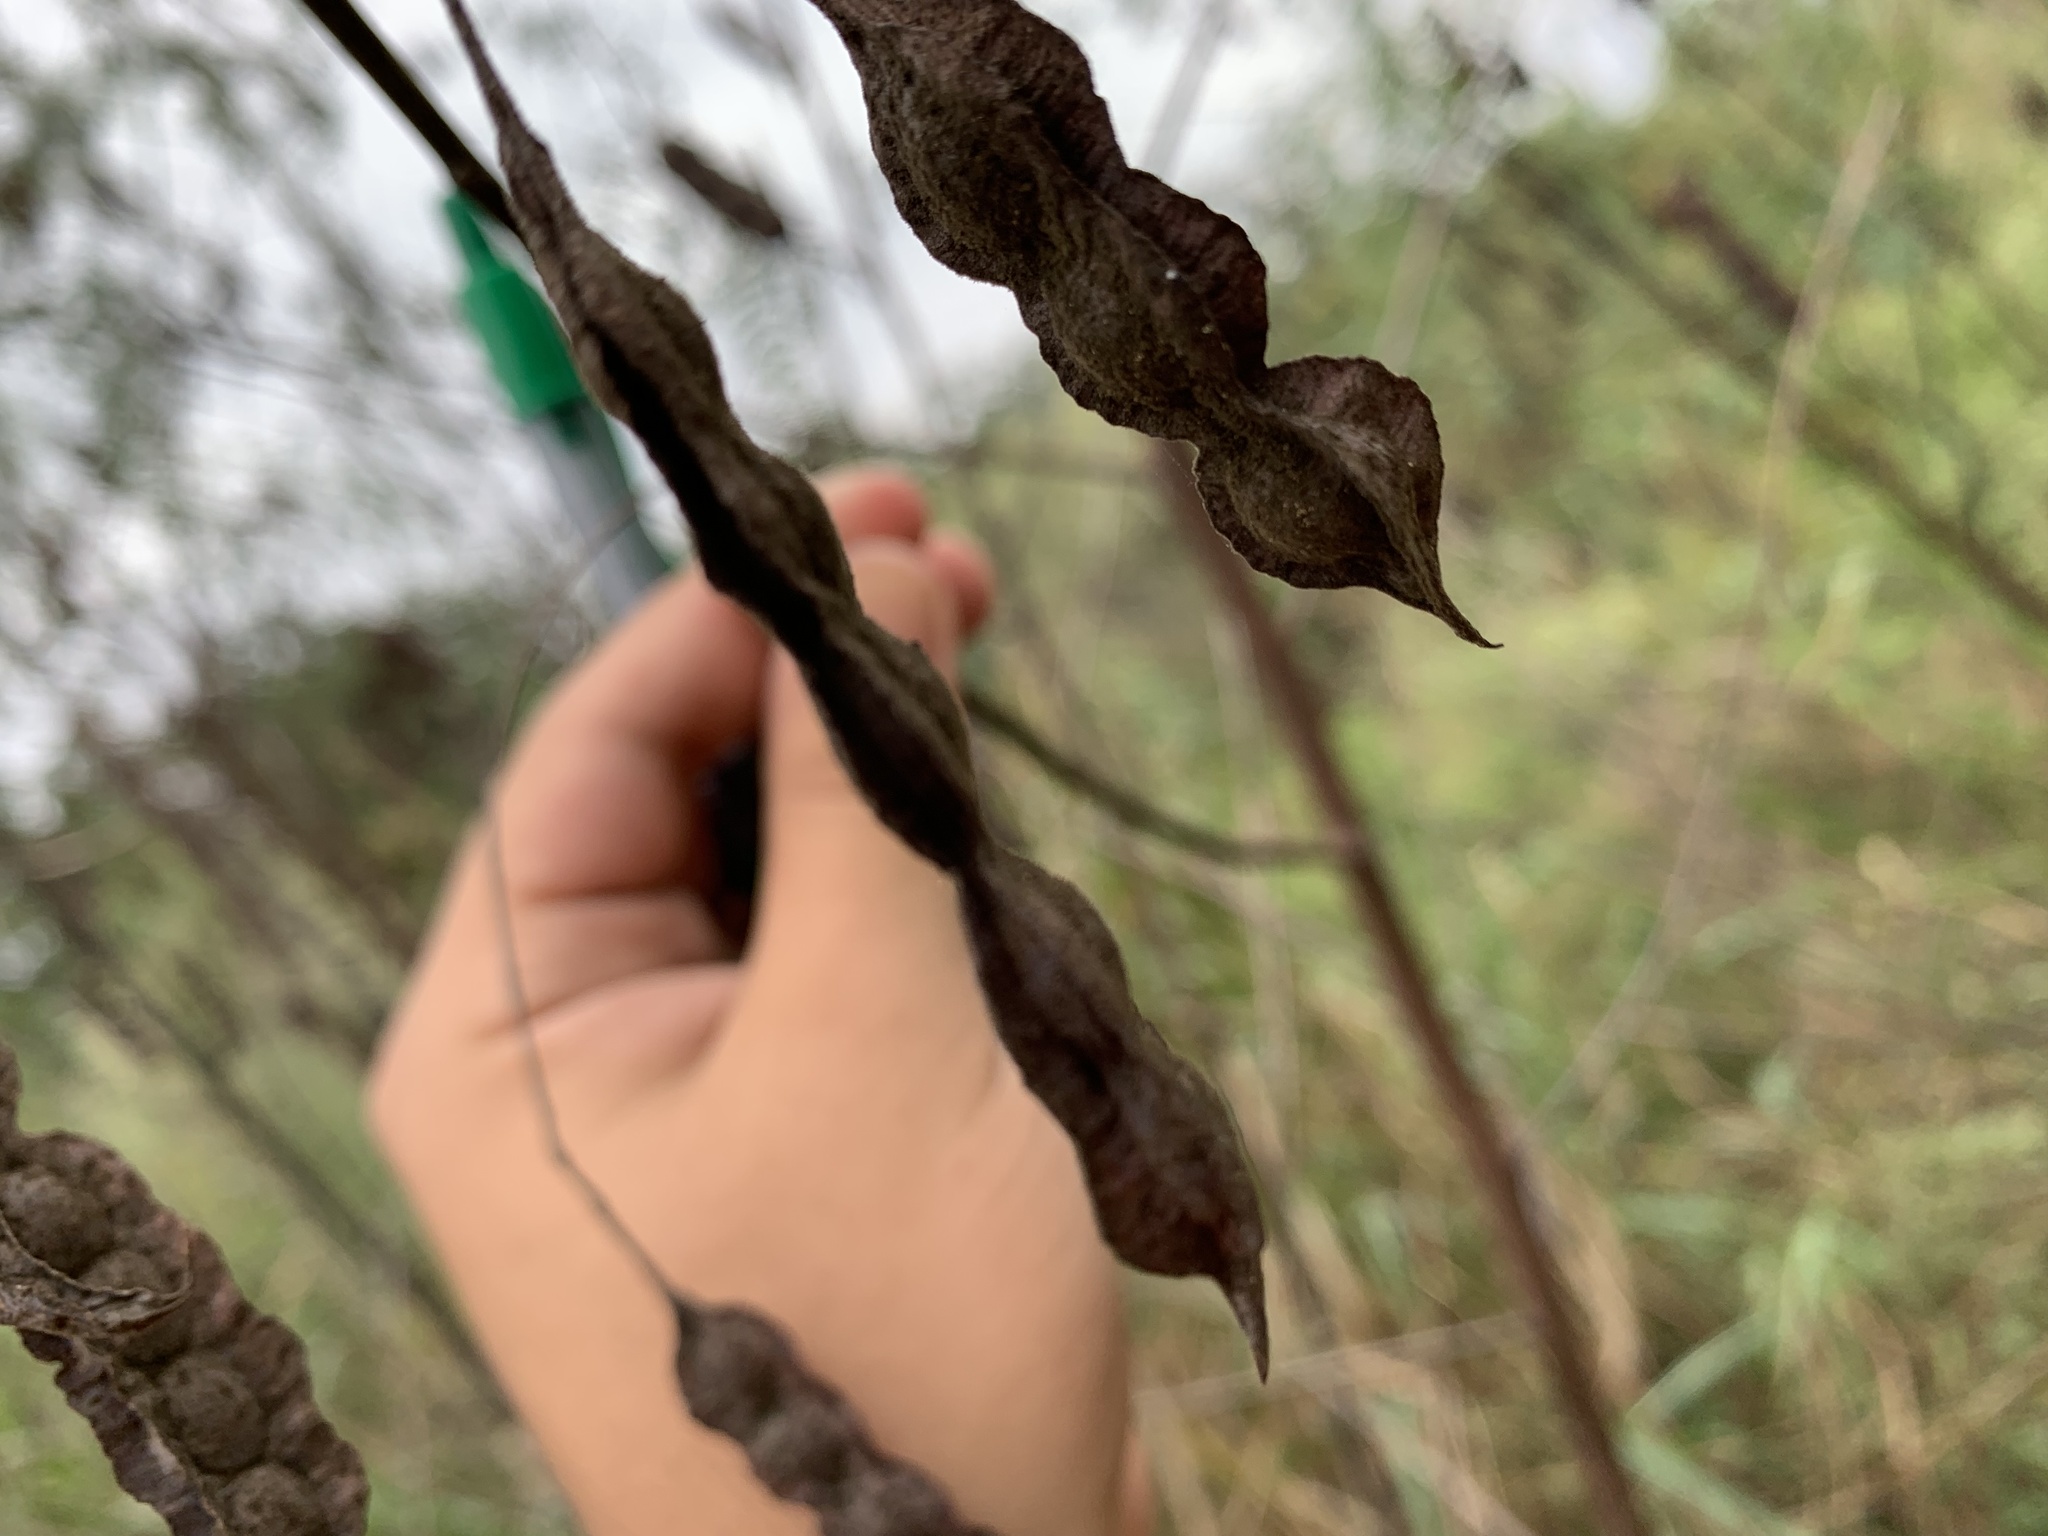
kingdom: Plantae
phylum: Tracheophyta
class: Magnoliopsida
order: Fabales
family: Fabaceae
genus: Sesbania
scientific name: Sesbania drummondii
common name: Poison-bean
